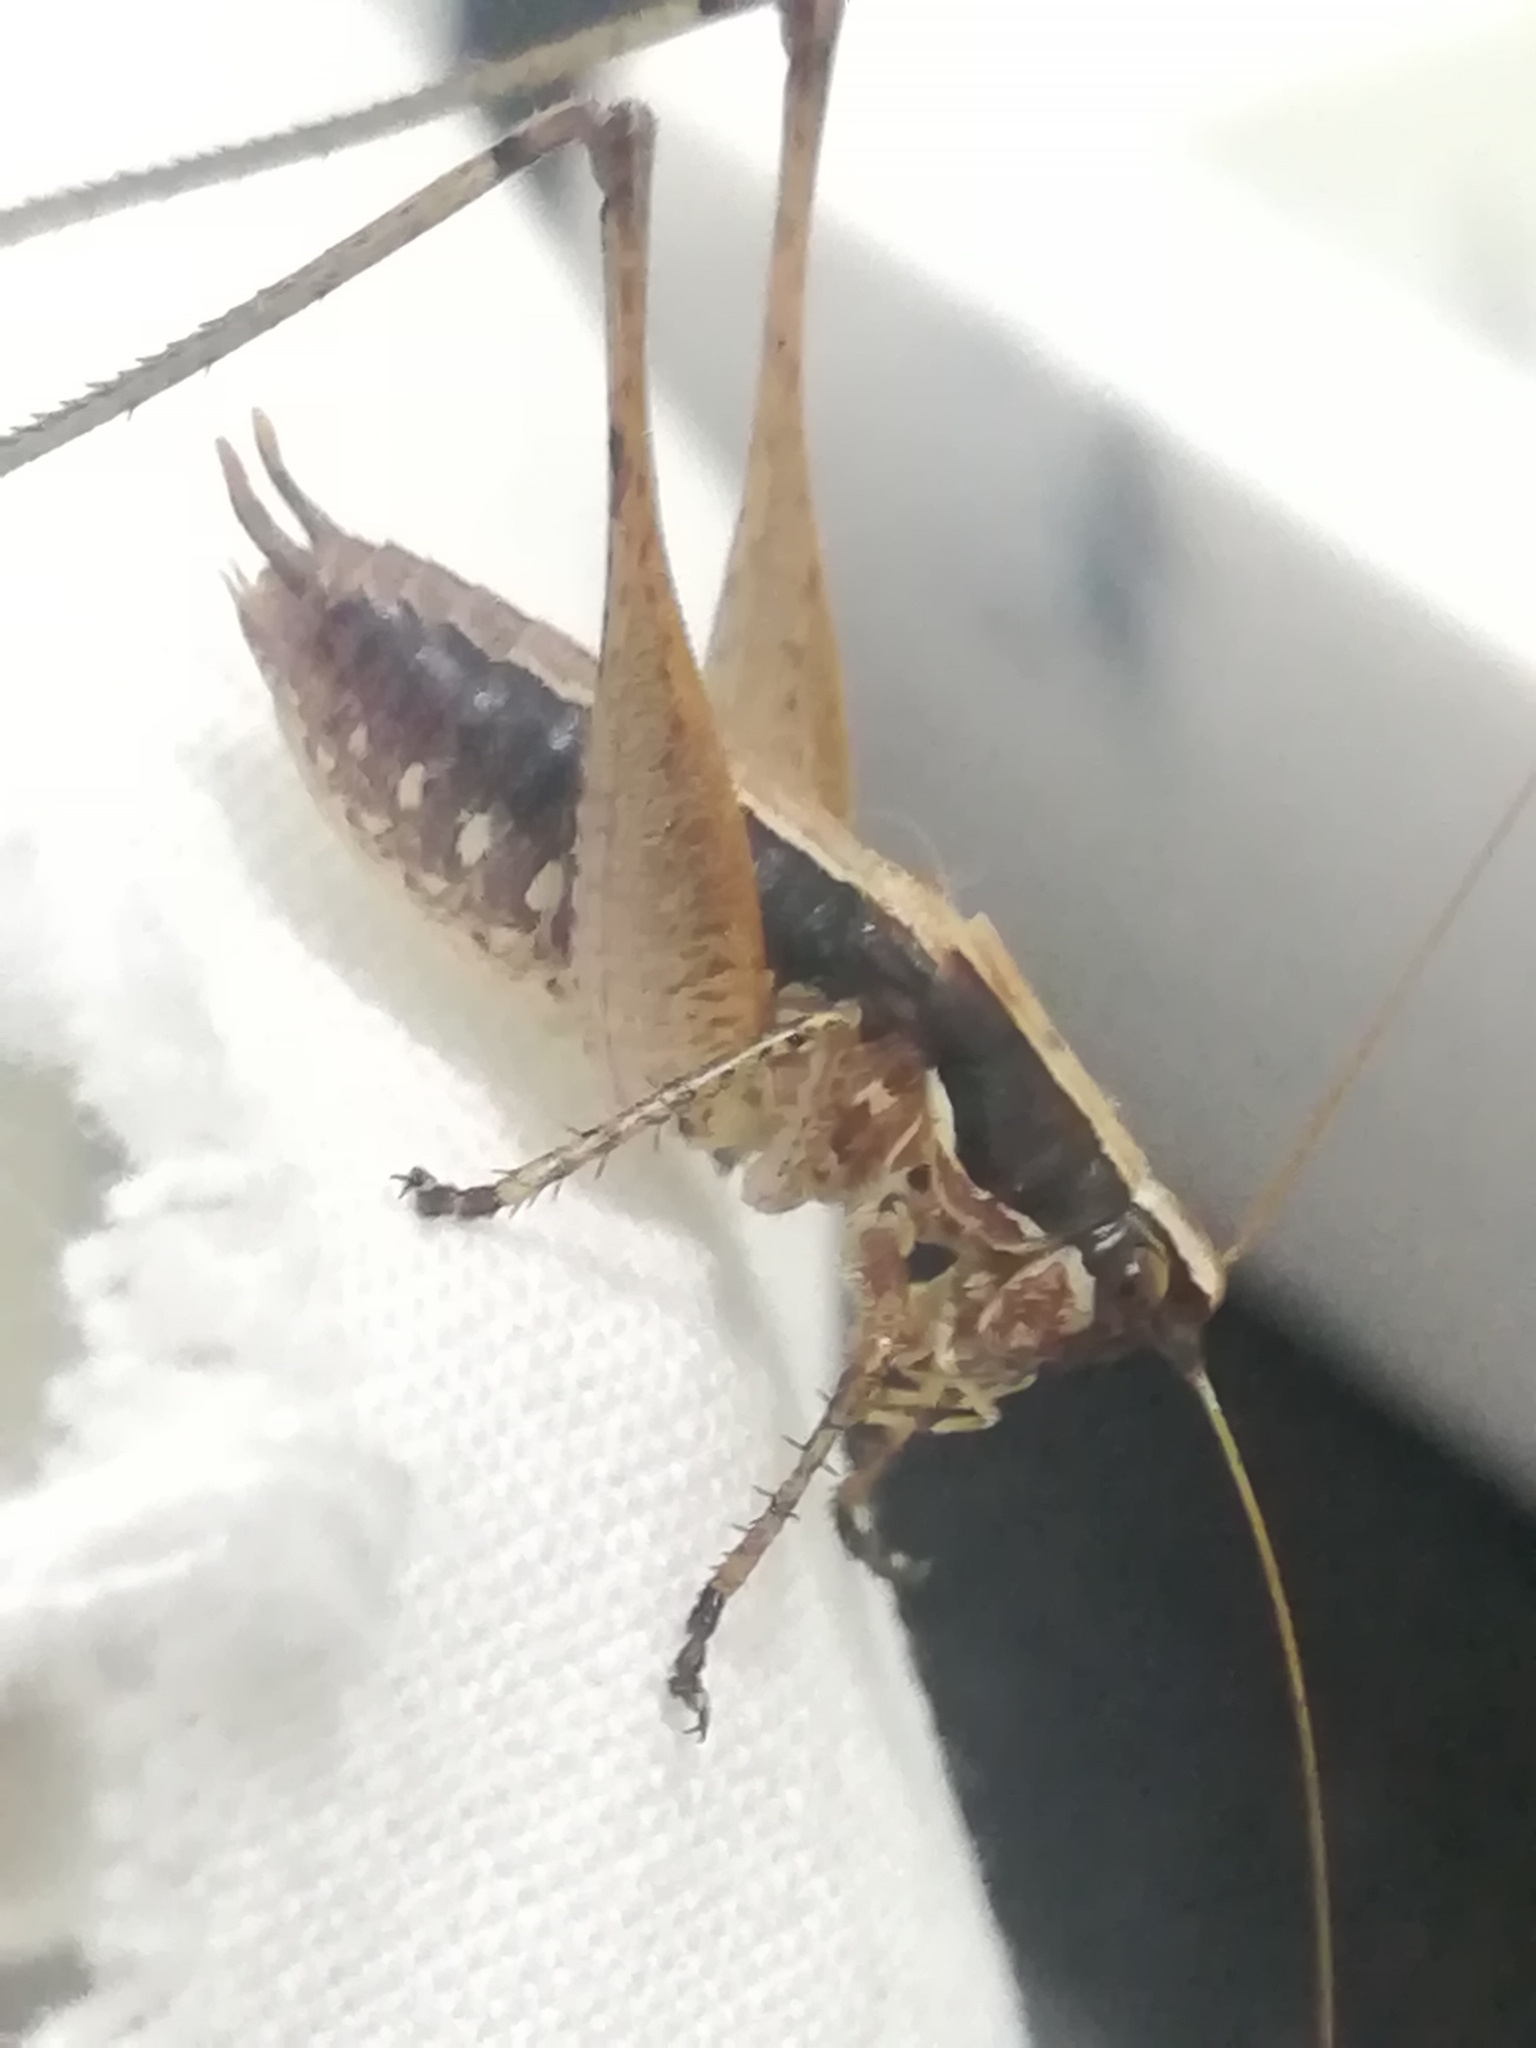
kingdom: Animalia
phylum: Arthropoda
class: Insecta
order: Orthoptera
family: Tettigoniidae
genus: Yersinella
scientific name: Yersinella raymondii
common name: Raymond's bush-cricket
